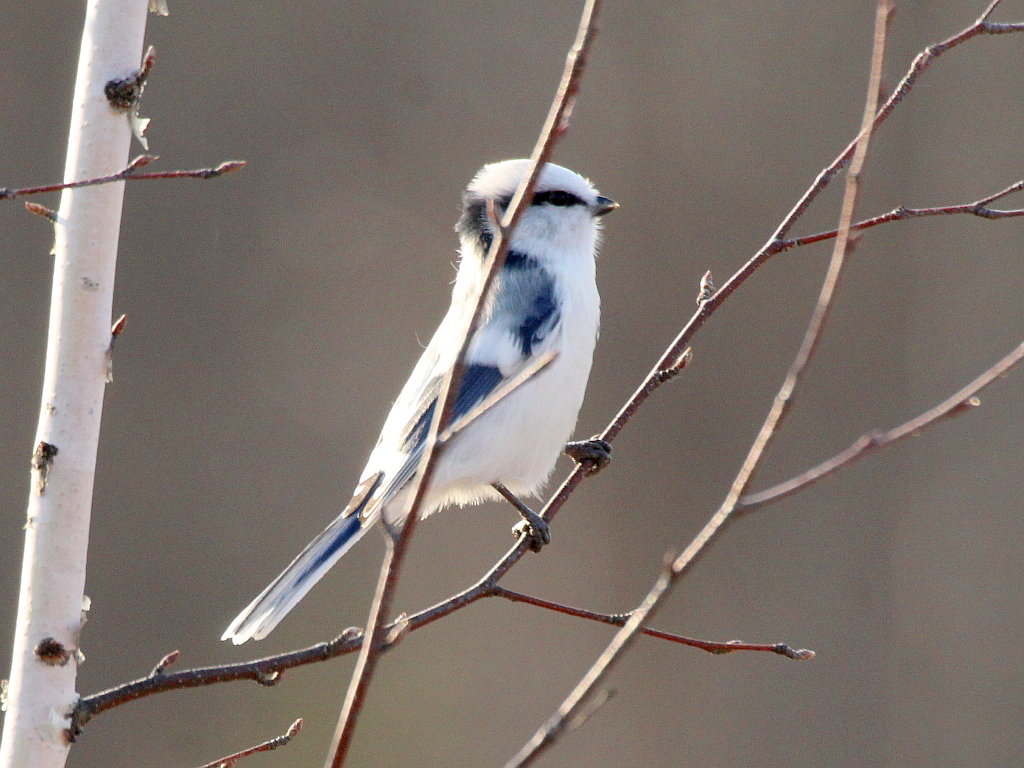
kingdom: Animalia
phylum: Chordata
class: Aves
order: Passeriformes
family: Paridae
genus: Cyanistes
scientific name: Cyanistes cyanus
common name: Azure tit
